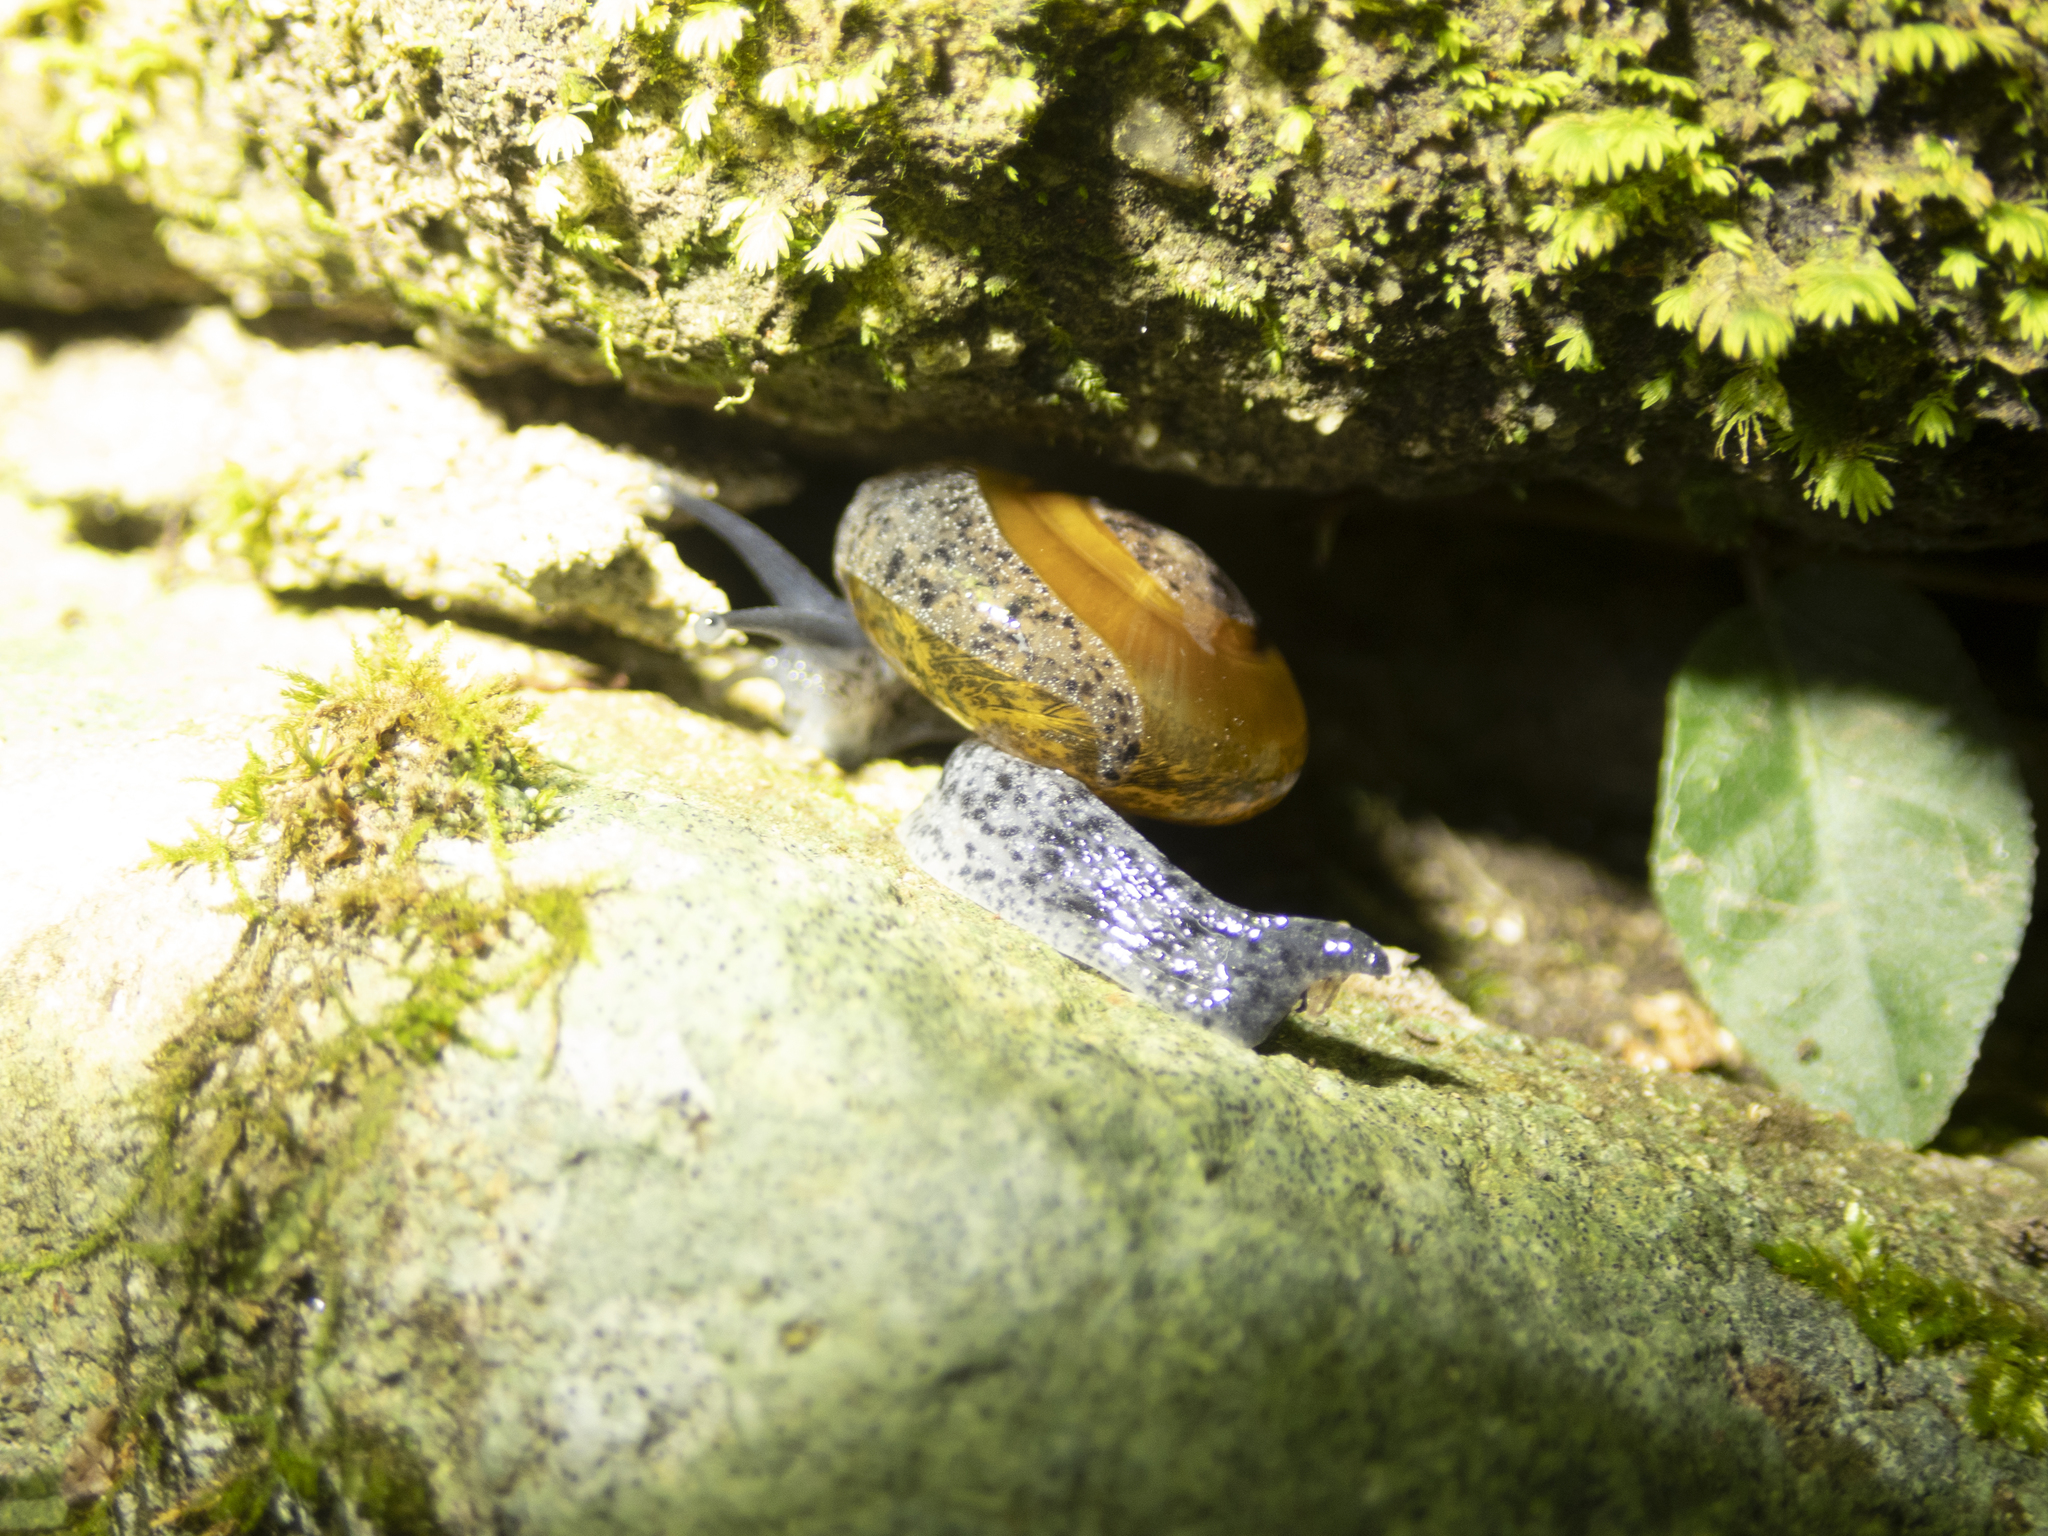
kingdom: Animalia
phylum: Mollusca
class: Gastropoda
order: Stylommatophora
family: Ariophantidae
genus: Macrochlamys
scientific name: Macrochlamys superlita
